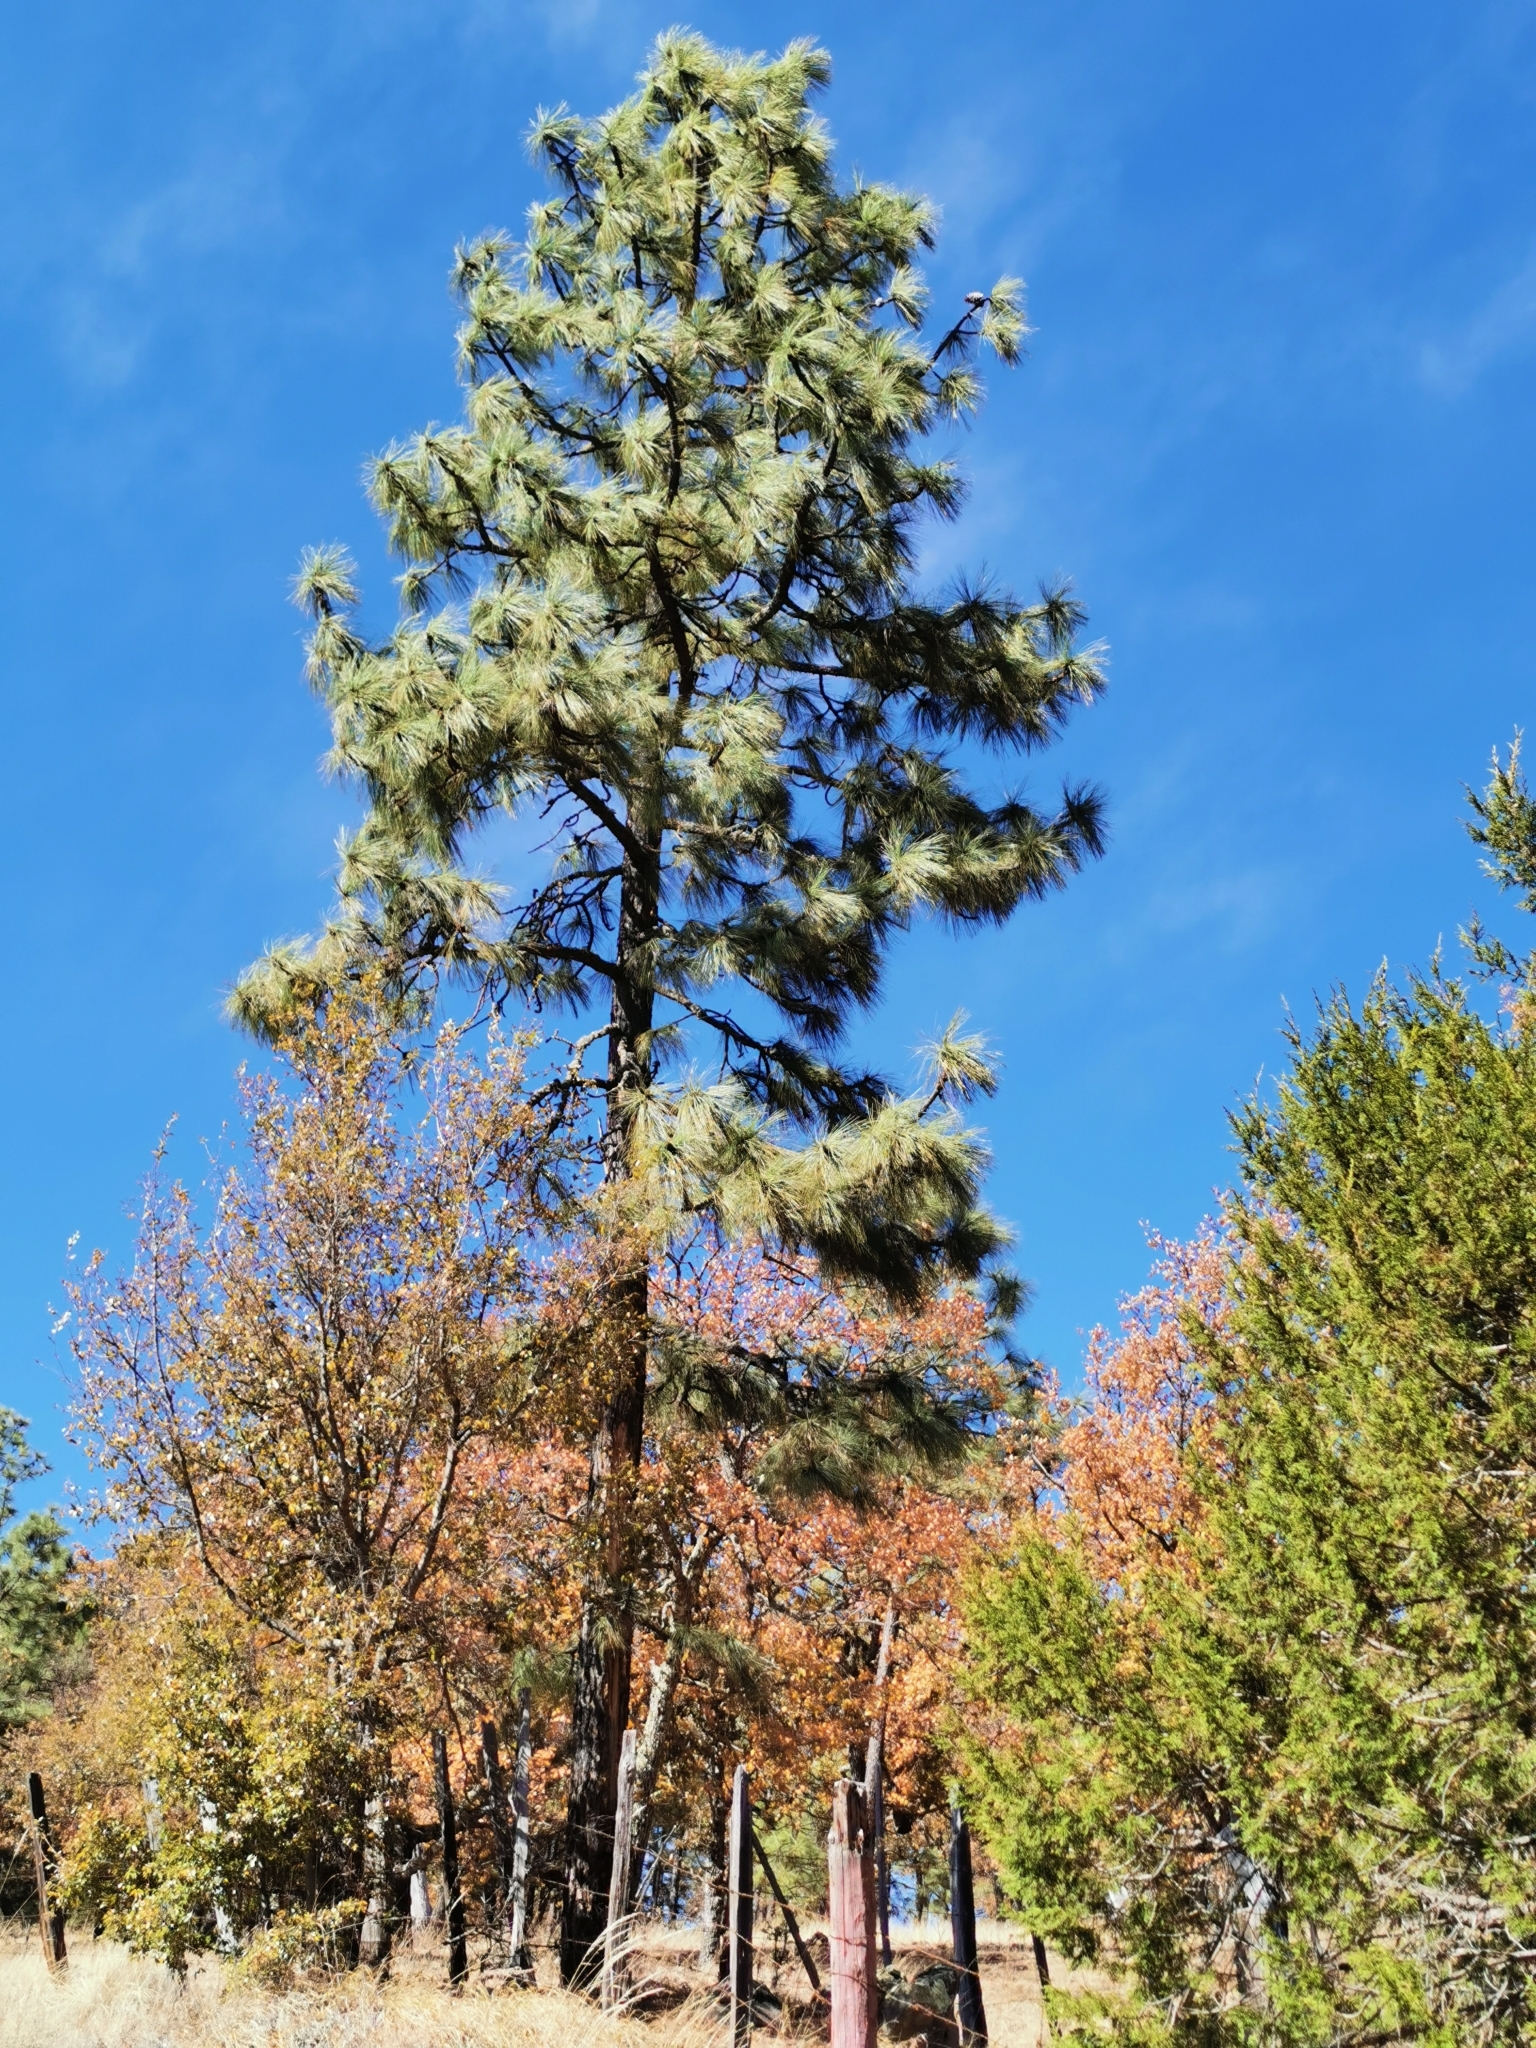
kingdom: Plantae
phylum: Tracheophyta
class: Pinopsida
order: Pinales
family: Pinaceae
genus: Pinus
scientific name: Pinus engelmannii
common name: Apache pine
